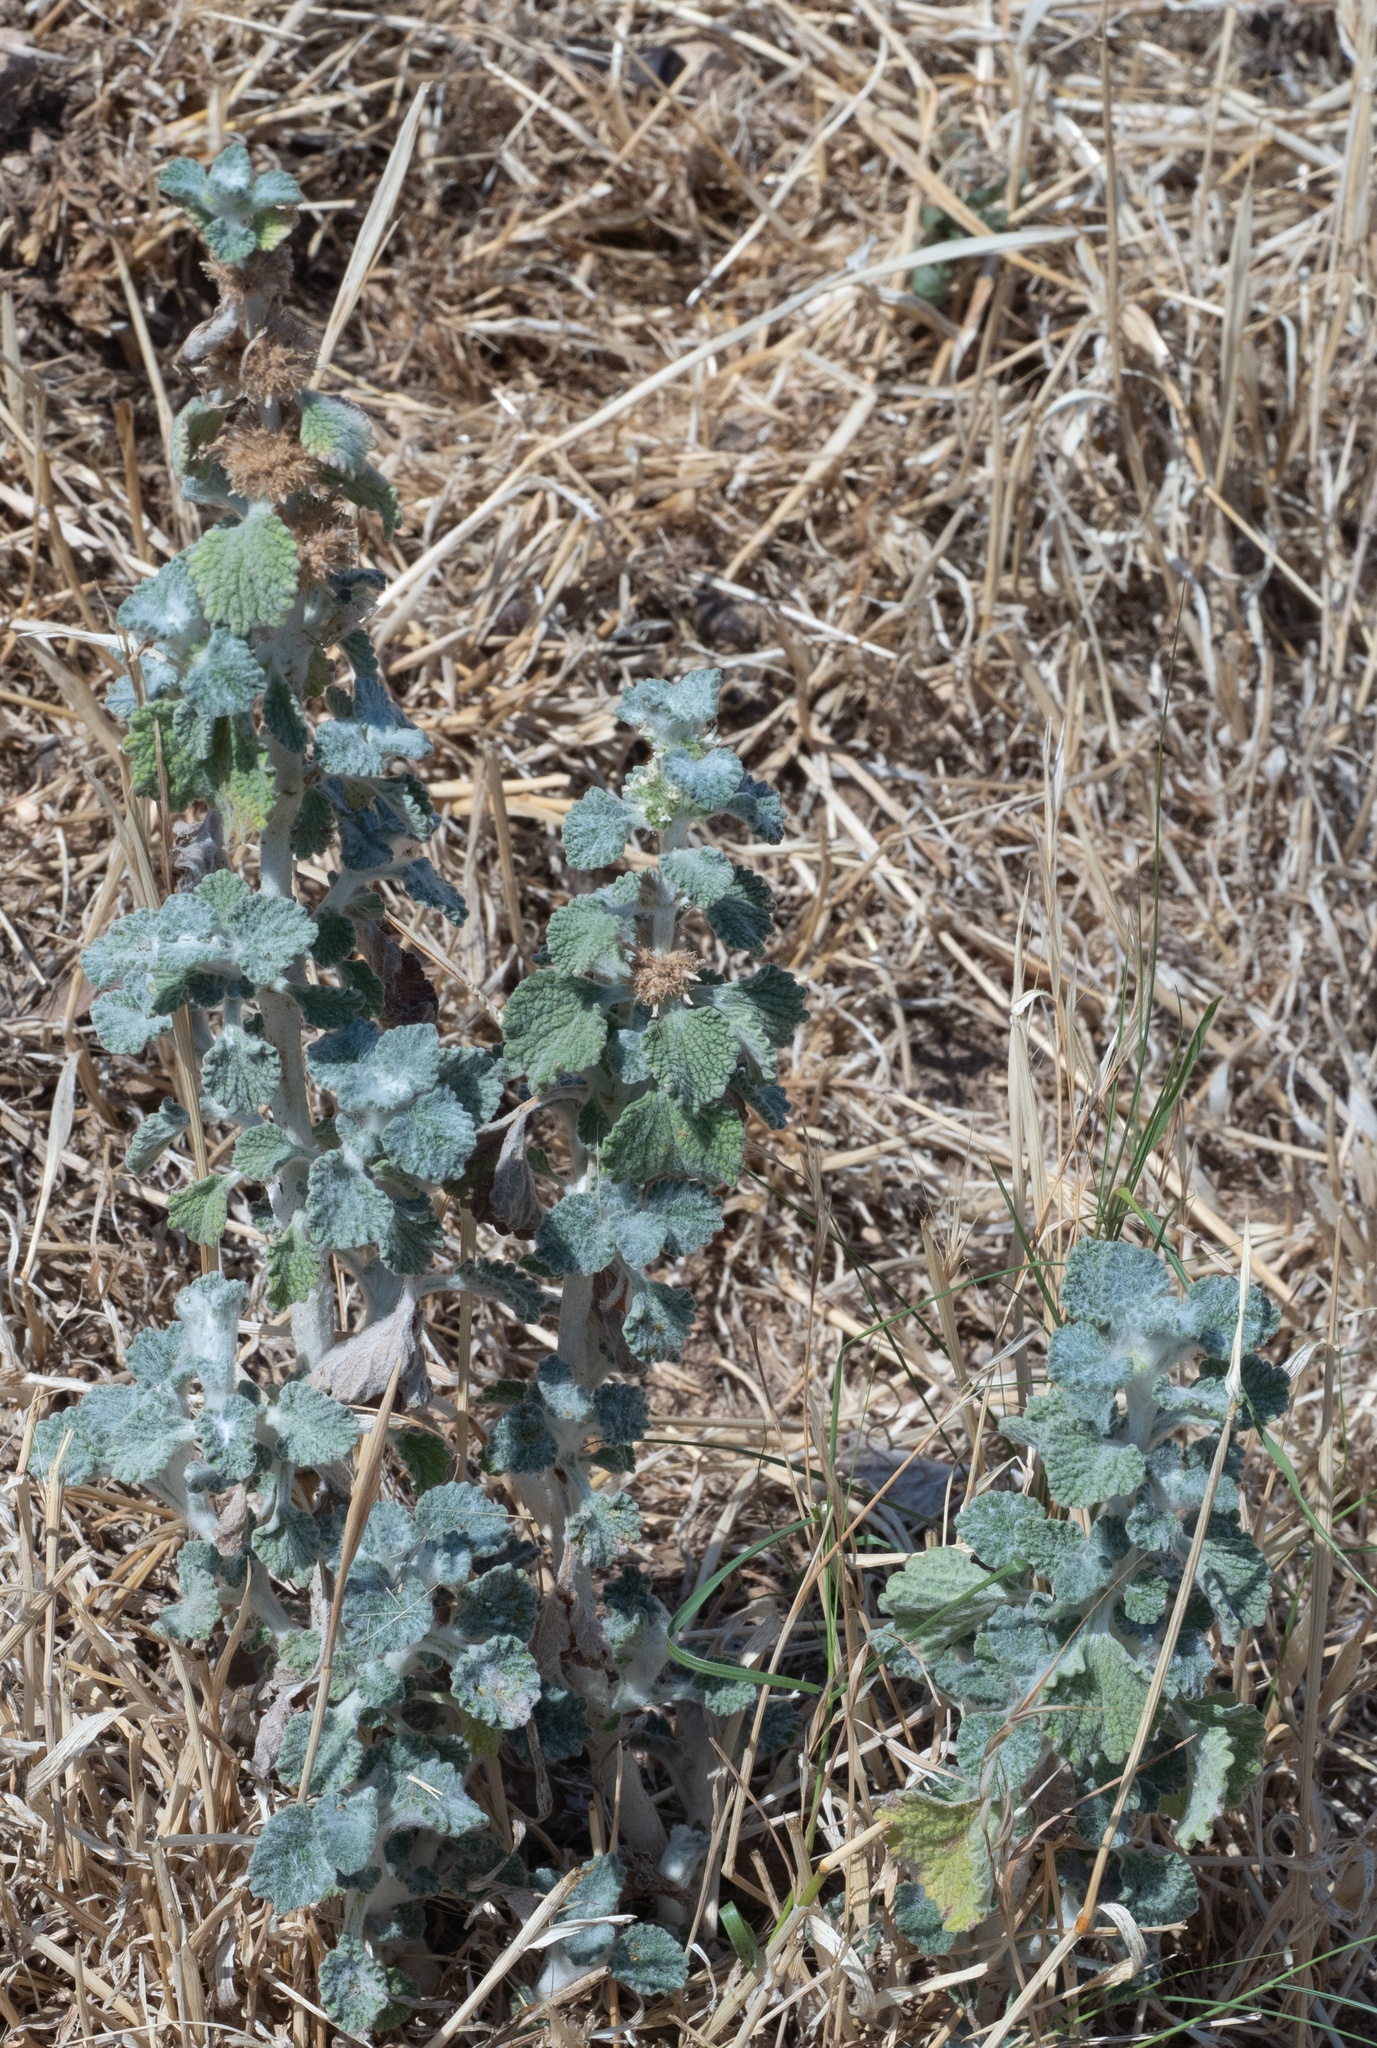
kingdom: Plantae
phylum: Tracheophyta
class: Magnoliopsida
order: Lamiales
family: Lamiaceae
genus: Marrubium
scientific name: Marrubium vulgare
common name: Horehound
